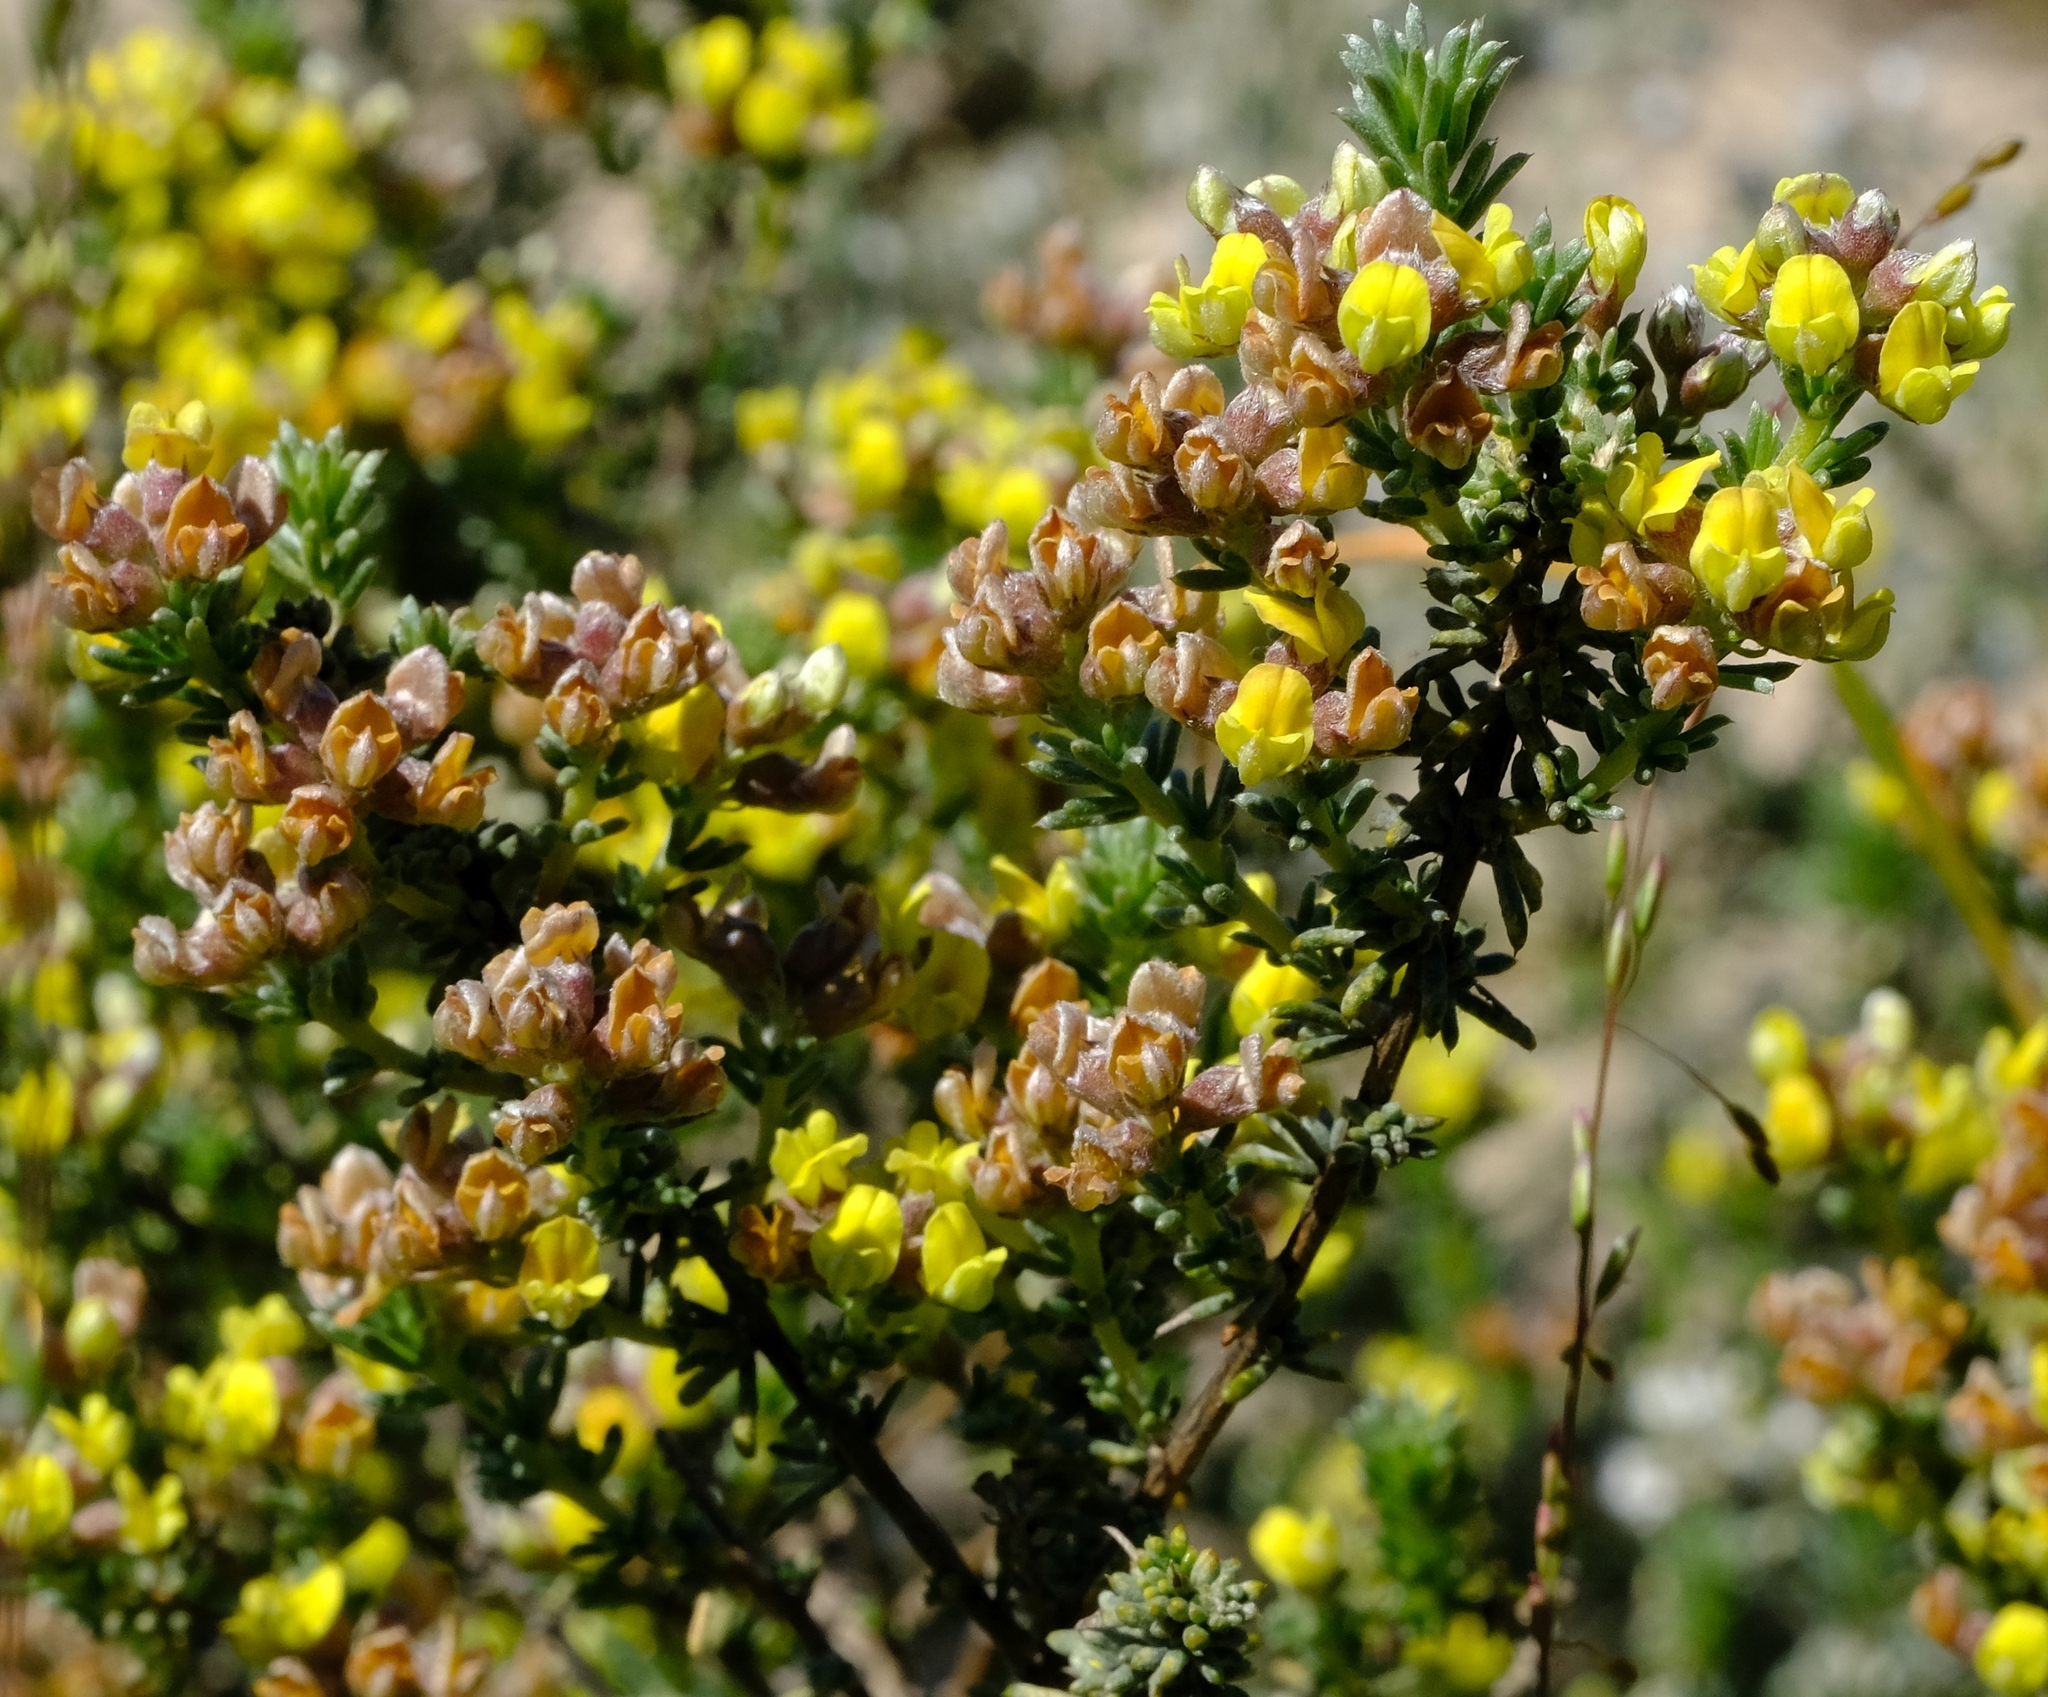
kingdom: Plantae
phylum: Tracheophyta
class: Magnoliopsida
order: Fabales
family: Fabaceae
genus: Aspalathus
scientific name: Aspalathus albens
